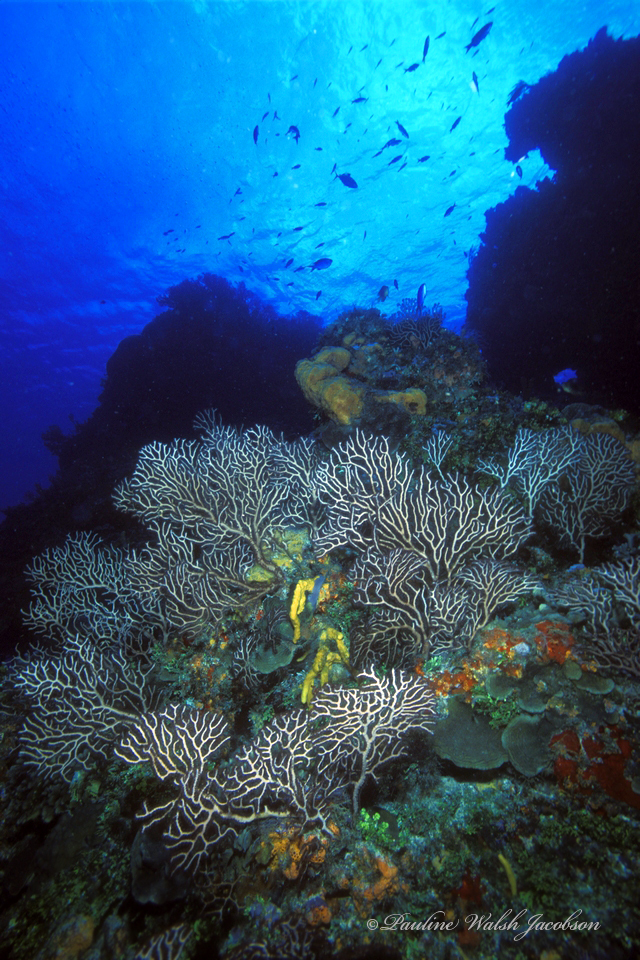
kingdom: Animalia
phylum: Cnidaria
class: Anthozoa
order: Malacalcyonacea
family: Melithaeidae
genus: Iciligorgia
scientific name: Iciligorgia schrammi
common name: Black sea fan
